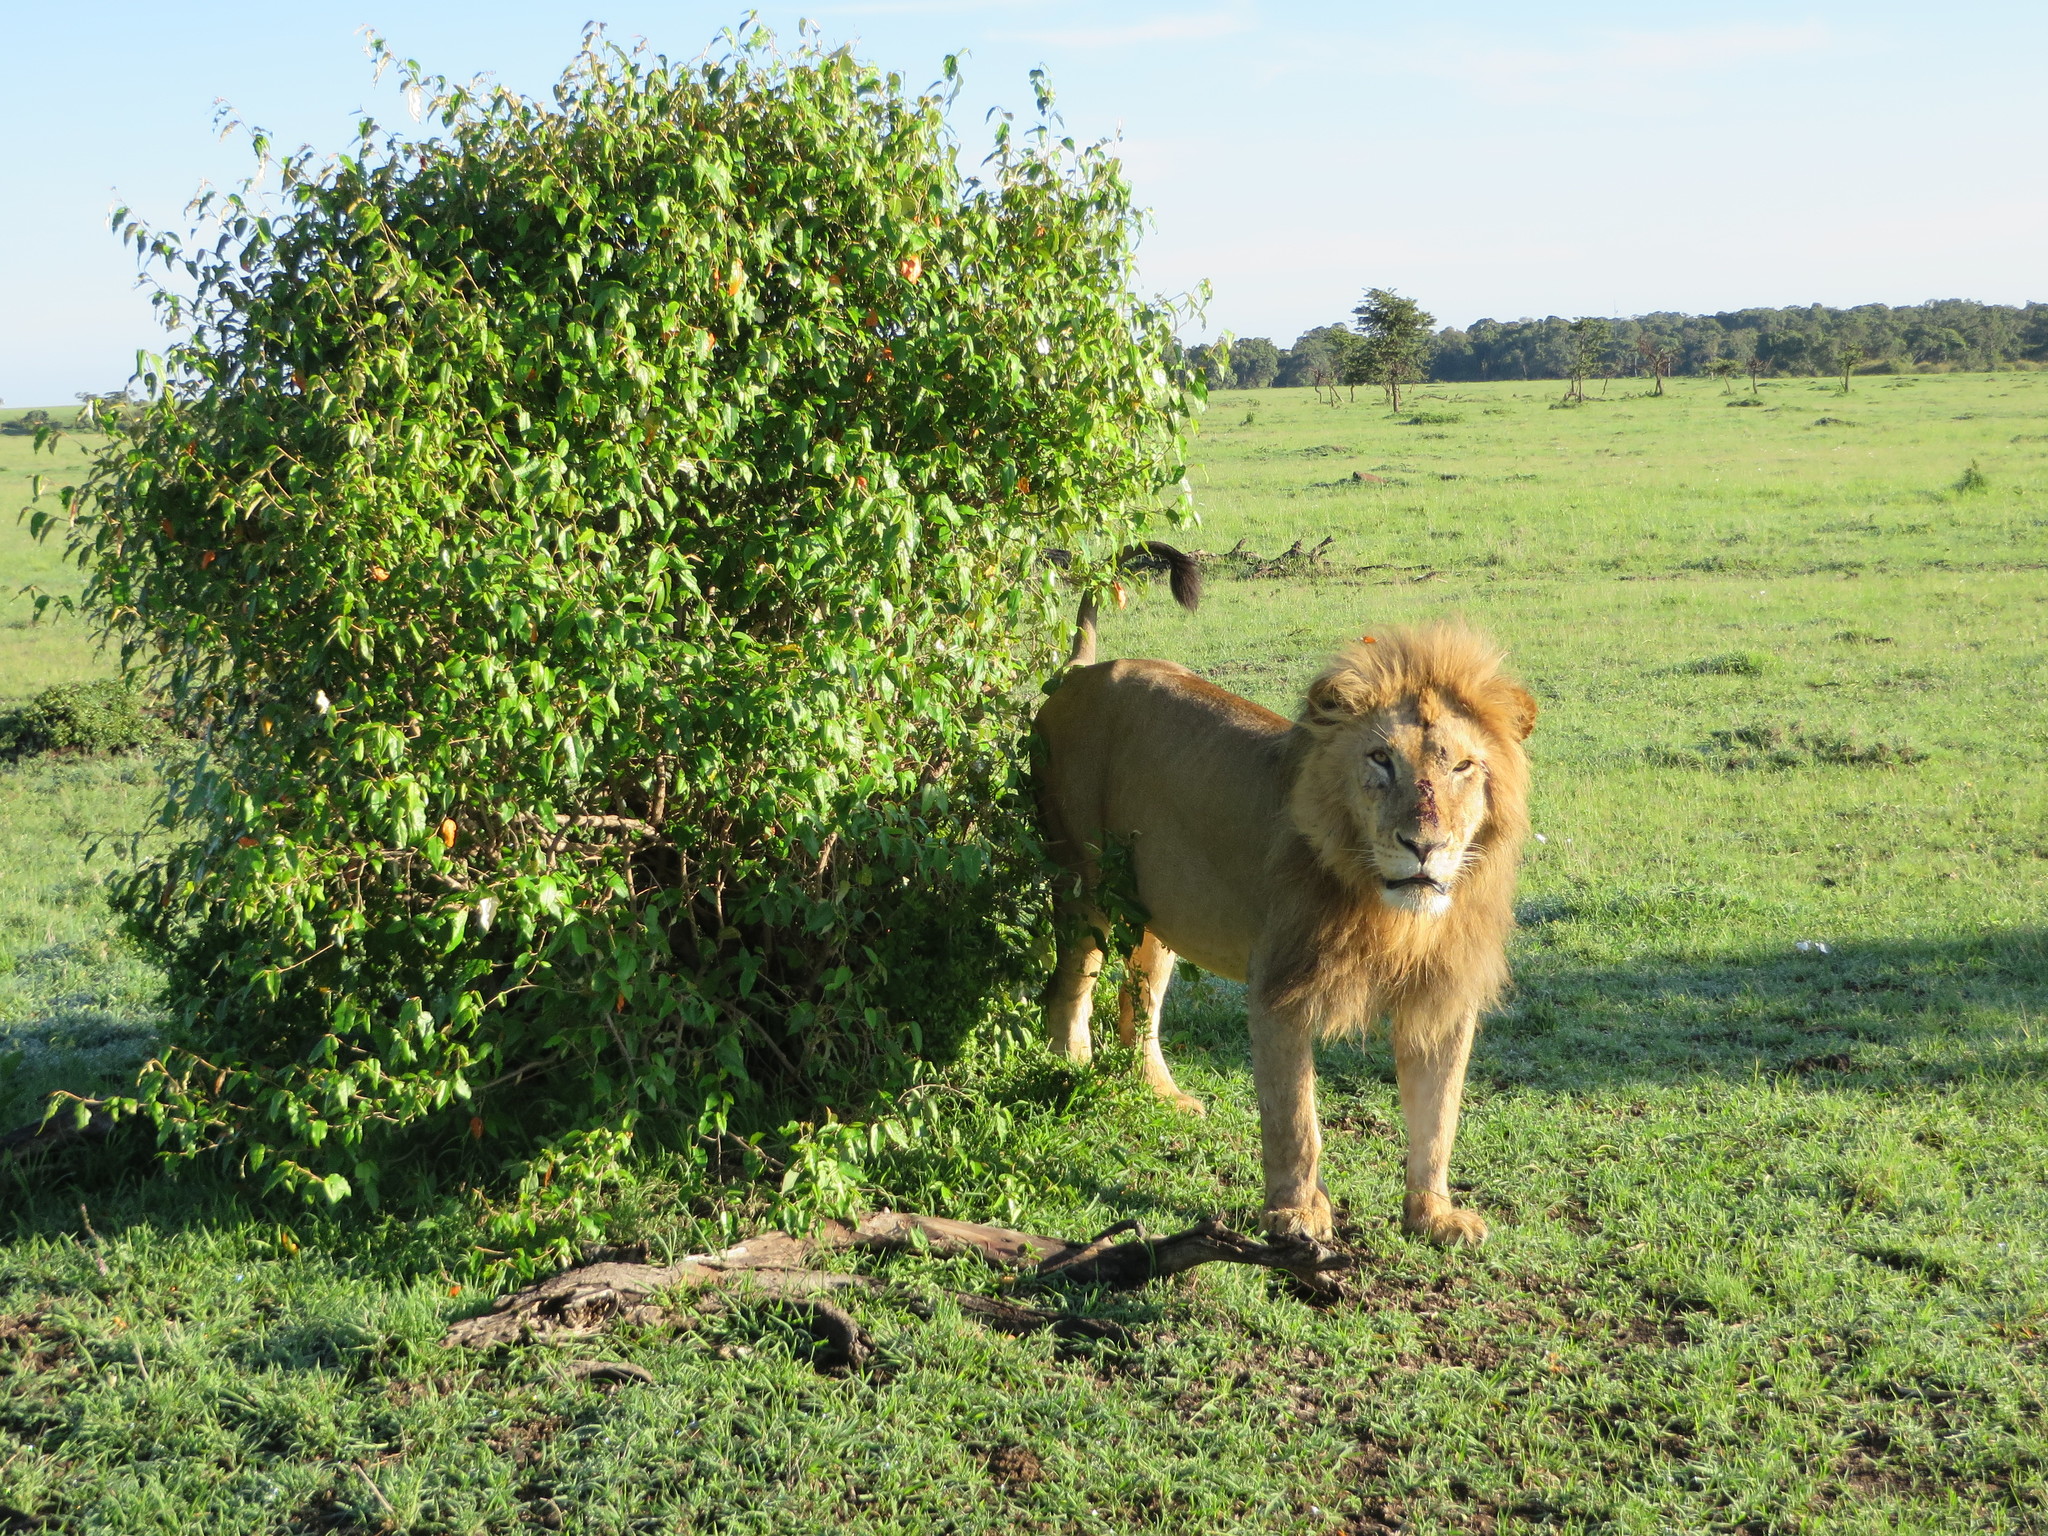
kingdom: Animalia
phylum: Chordata
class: Mammalia
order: Carnivora
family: Felidae
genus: Panthera
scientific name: Panthera leo
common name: Lion
